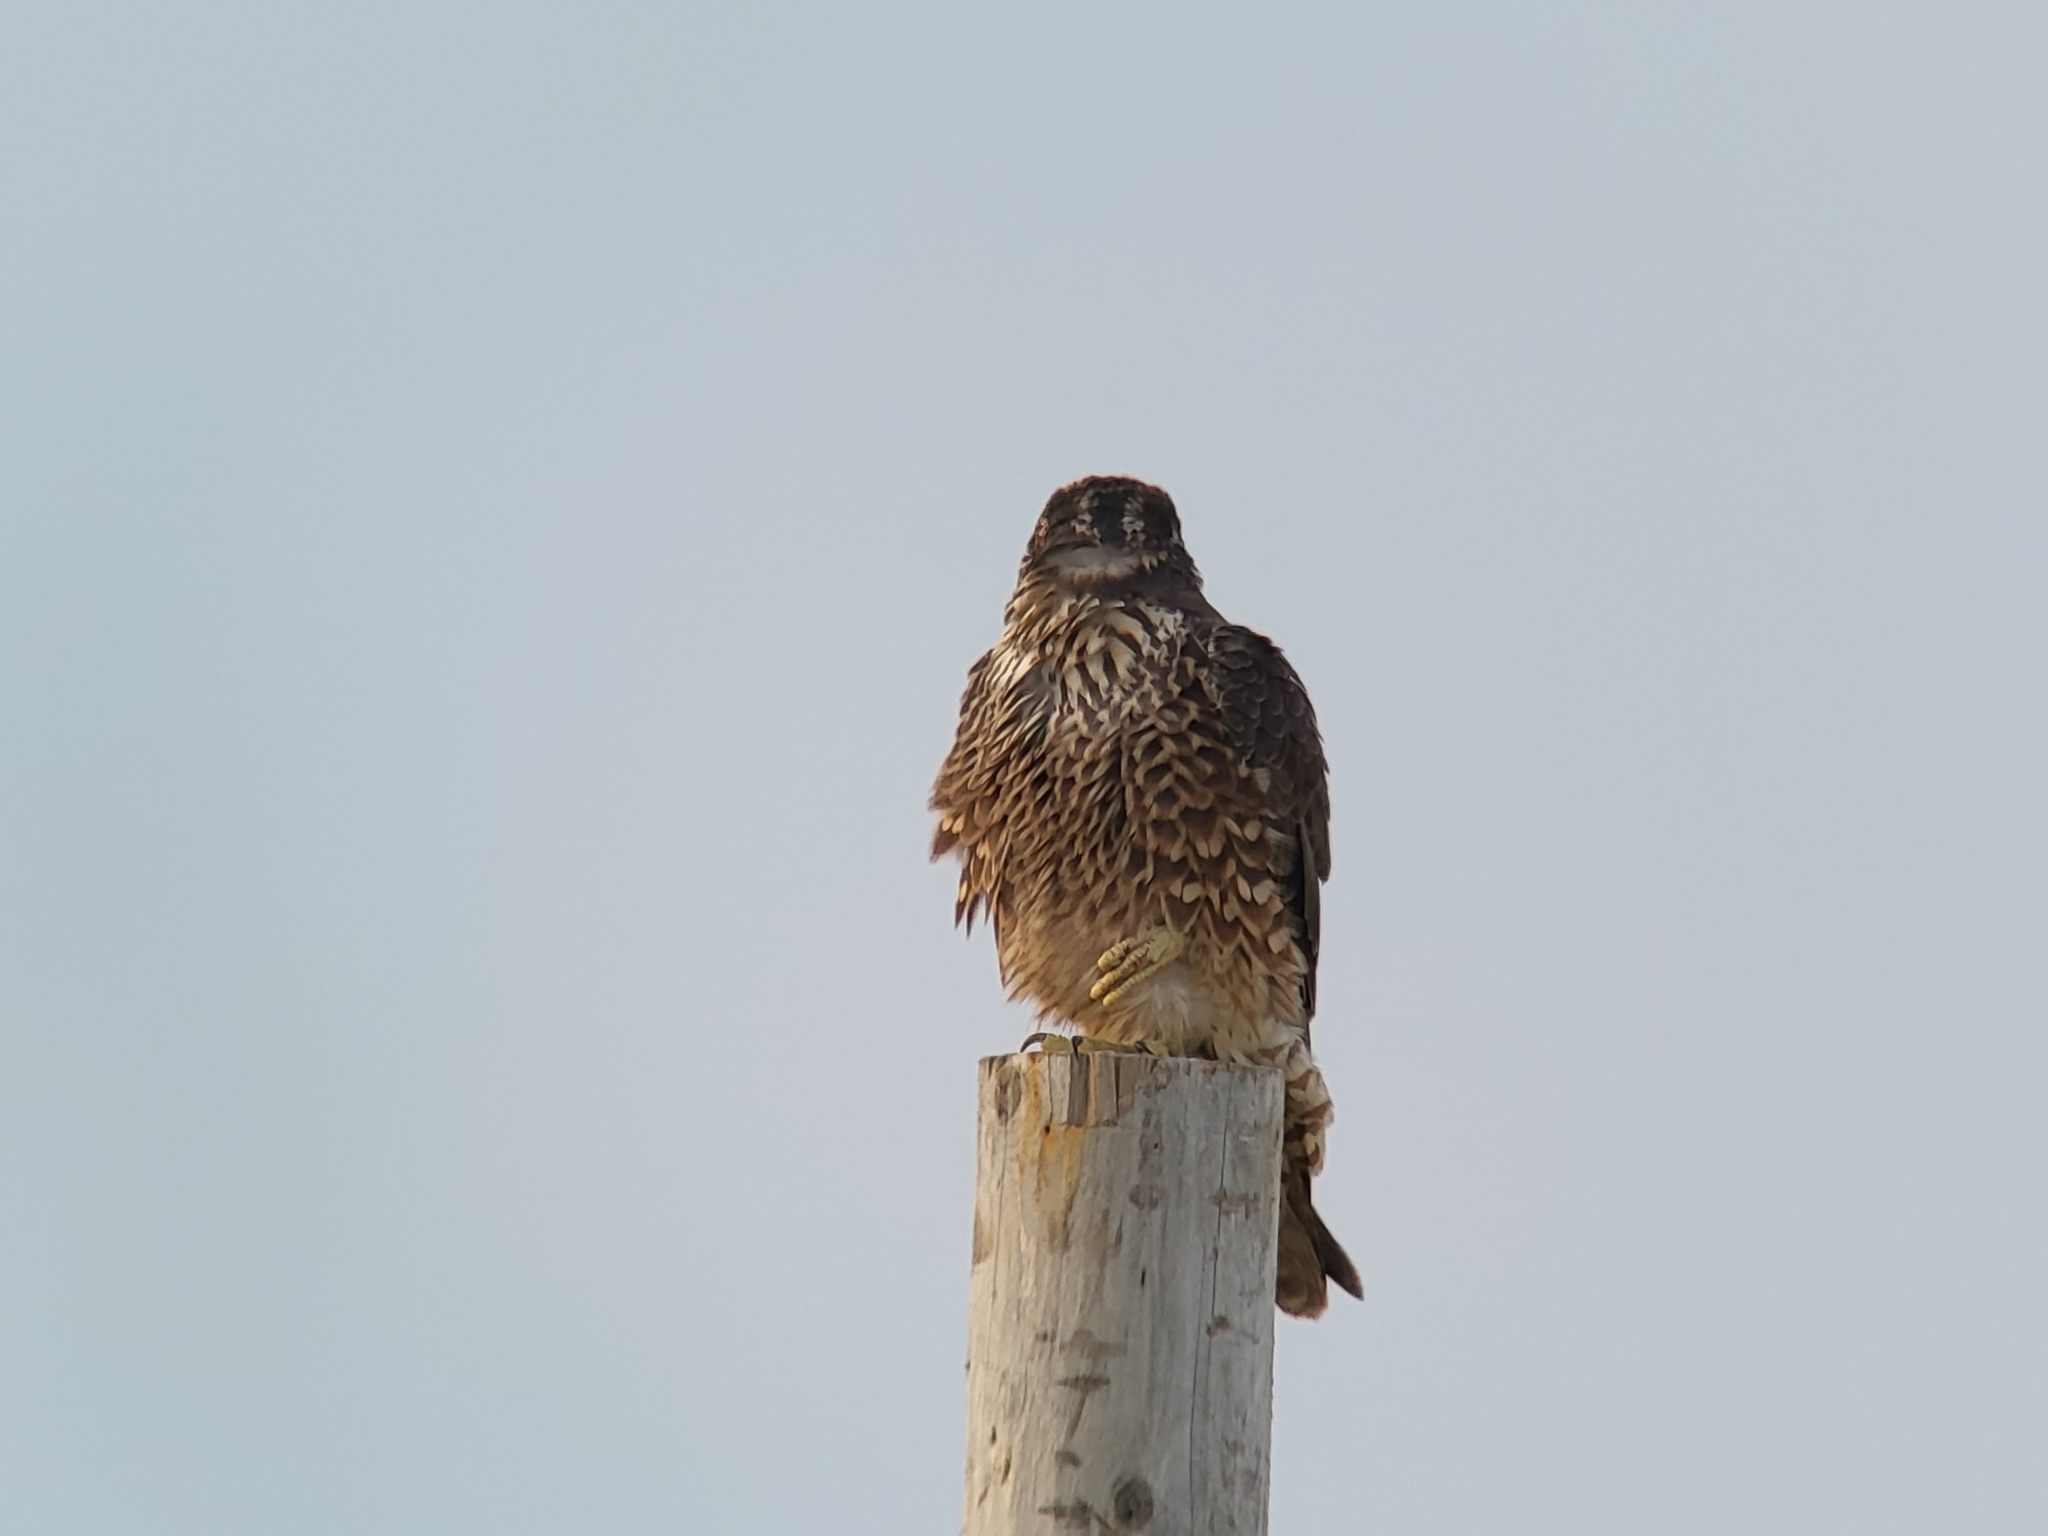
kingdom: Animalia
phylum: Chordata
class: Aves
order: Falconiformes
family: Falconidae
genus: Falco
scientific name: Falco peregrinus
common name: Peregrine falcon
